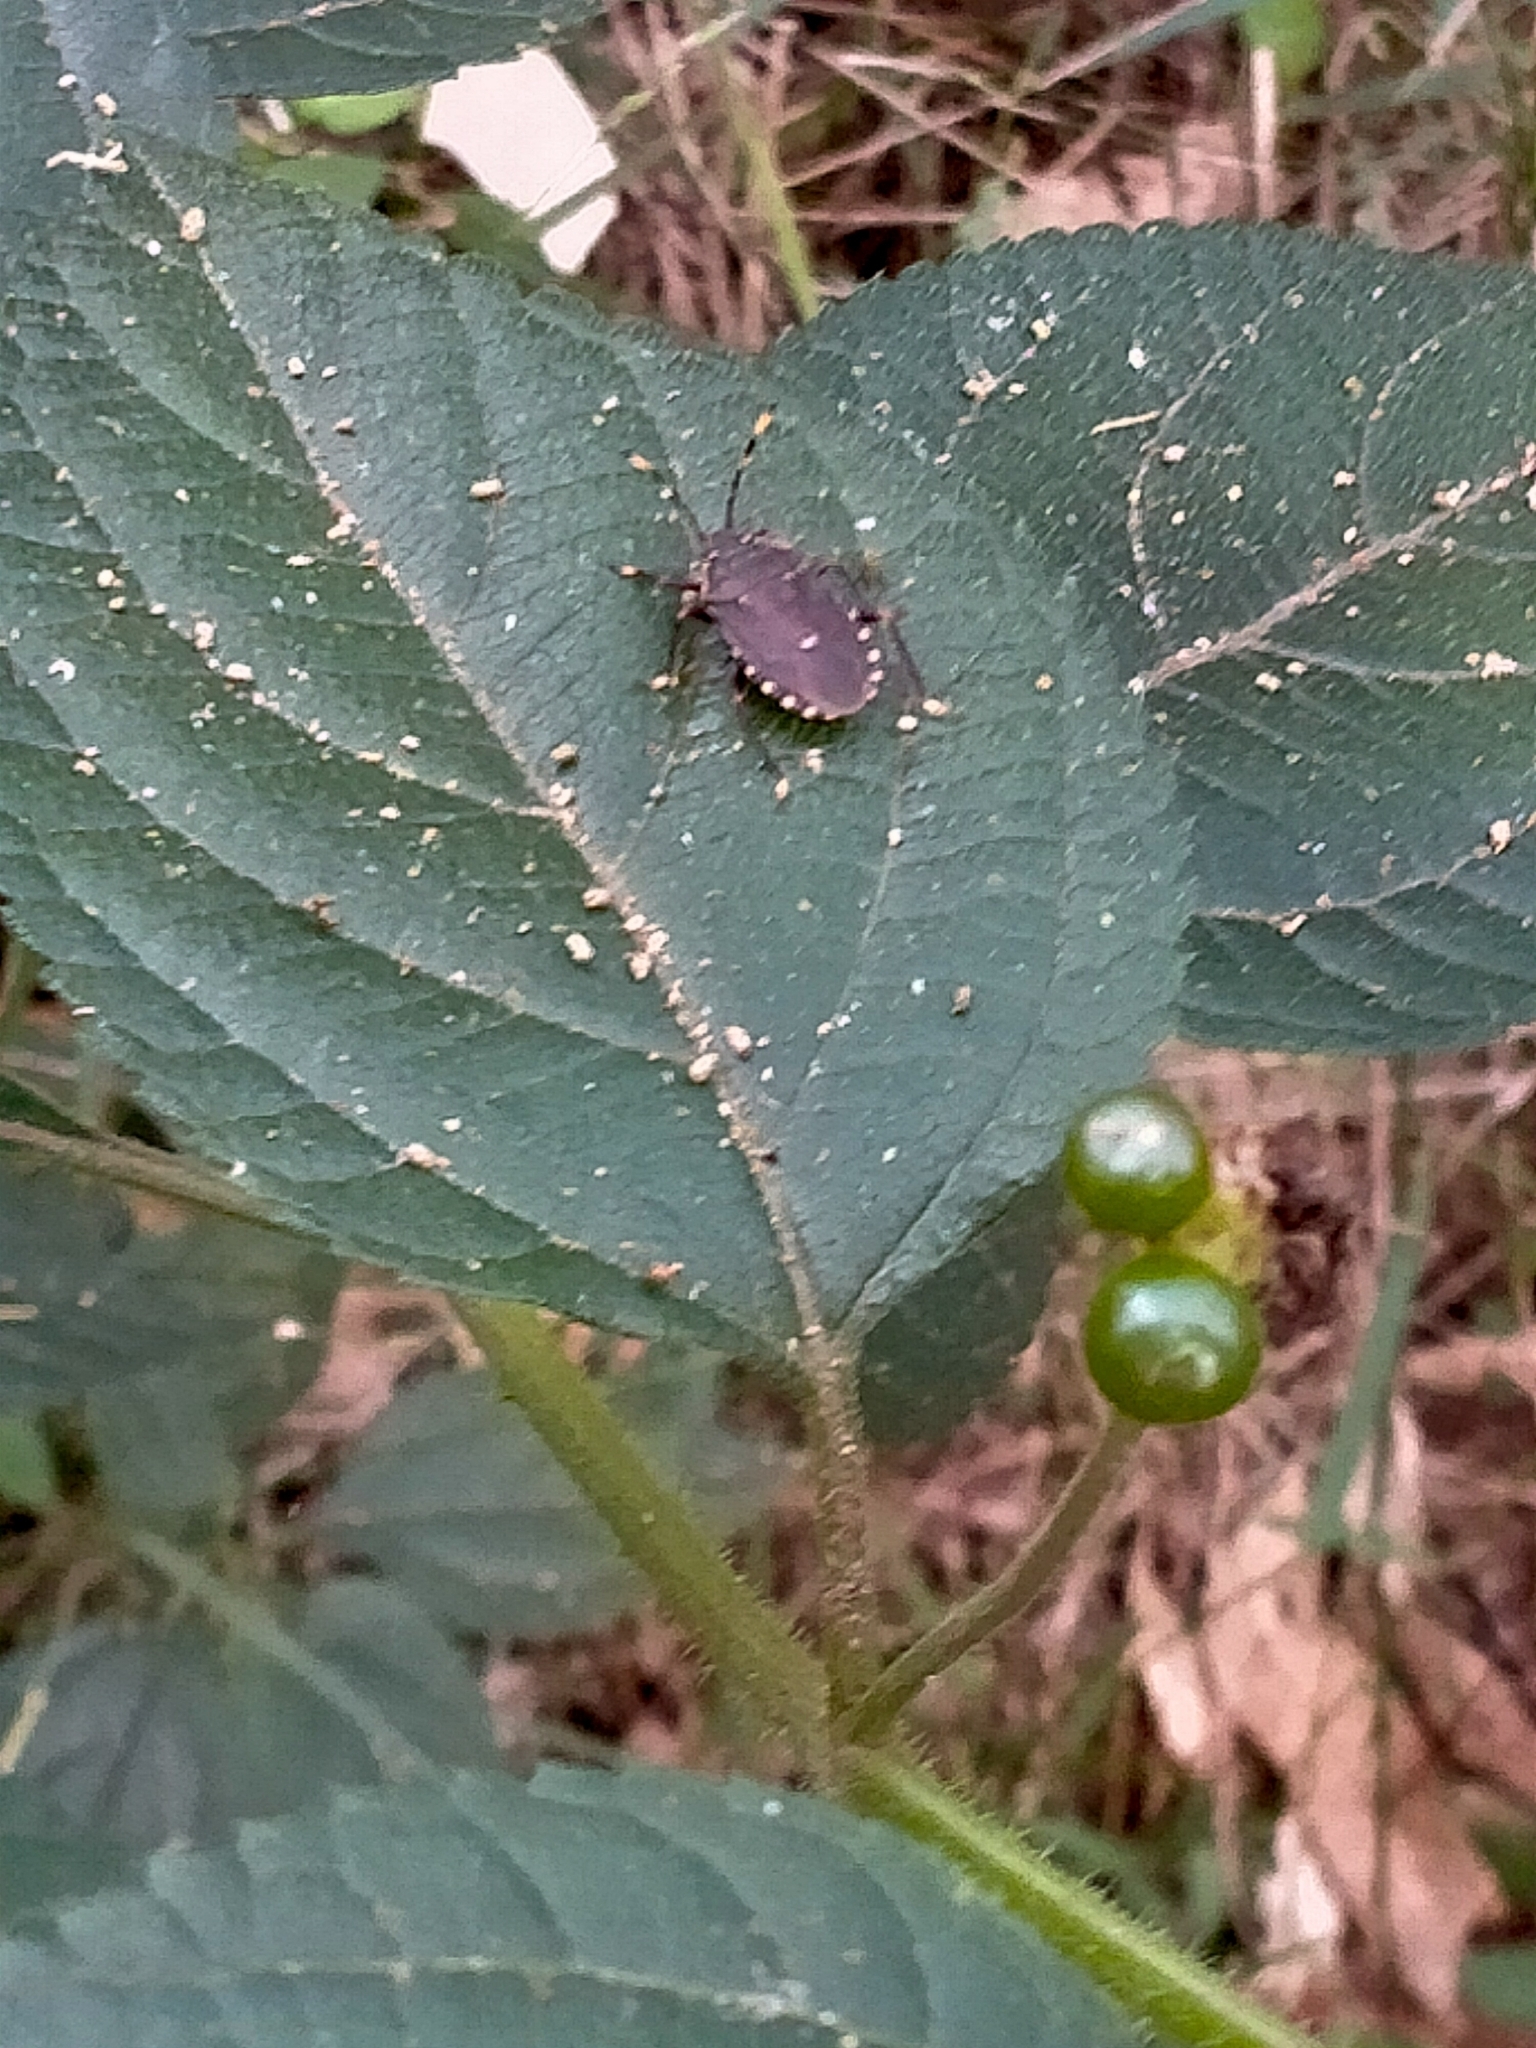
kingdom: Animalia
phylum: Arthropoda
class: Insecta
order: Hemiptera
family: Pentatomidae
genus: Notius
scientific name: Notius
